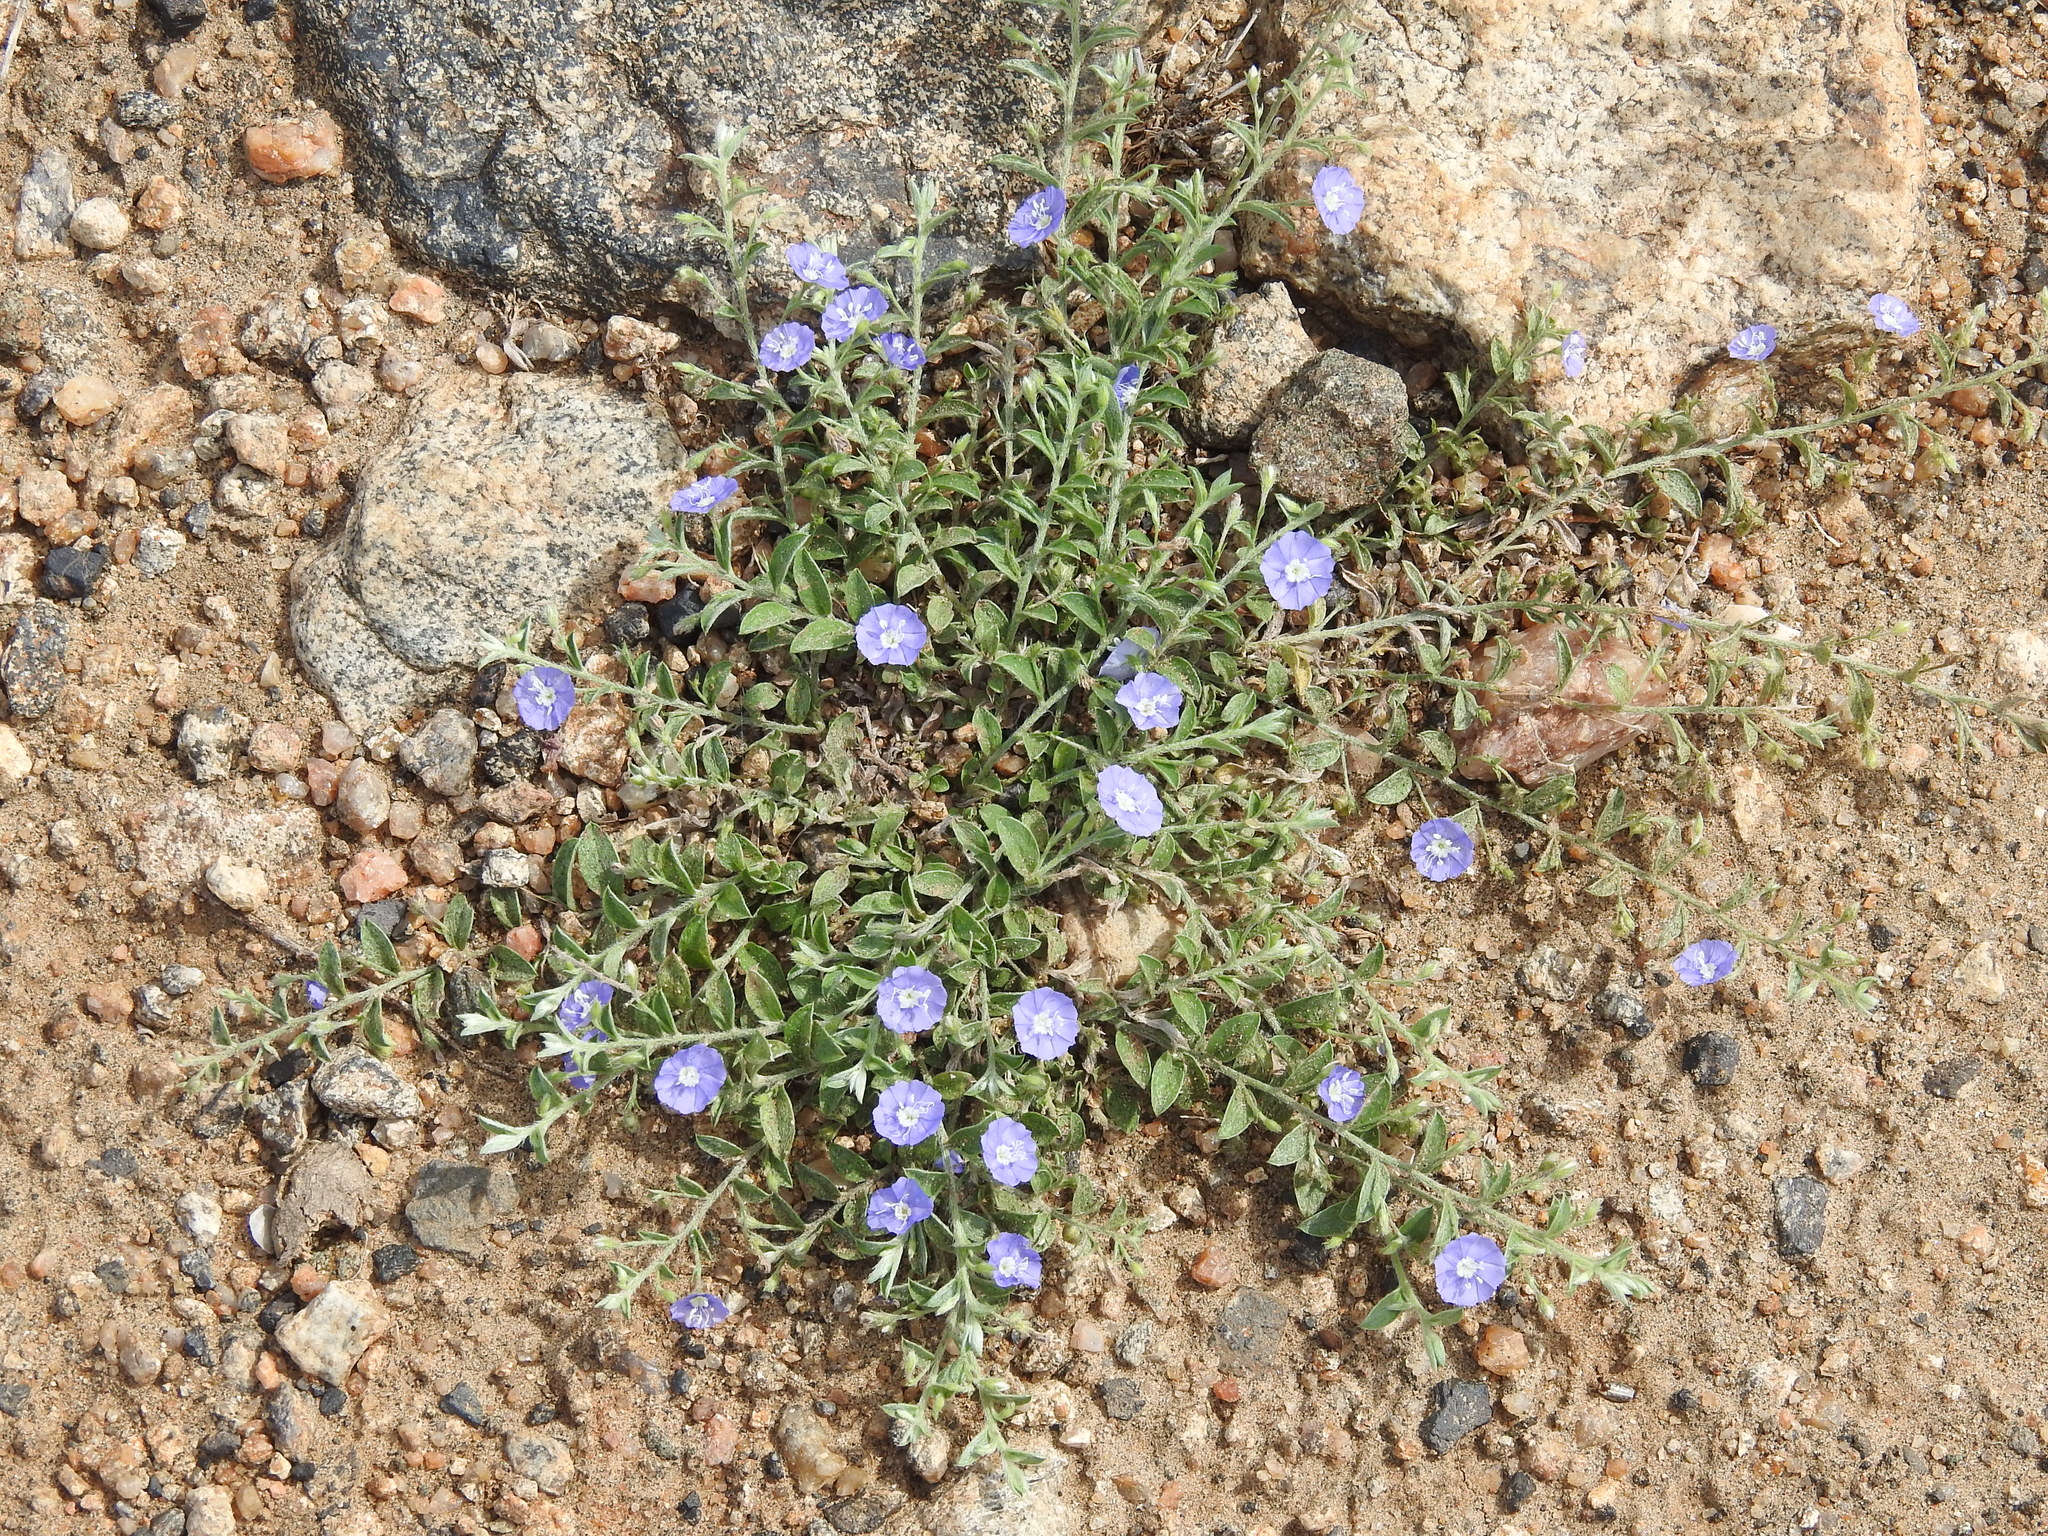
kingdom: Plantae
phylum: Tracheophyta
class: Magnoliopsida
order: Solanales
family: Convolvulaceae
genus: Evolvulus
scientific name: Evolvulus alsinoides
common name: Slender dwarf morning-glory
